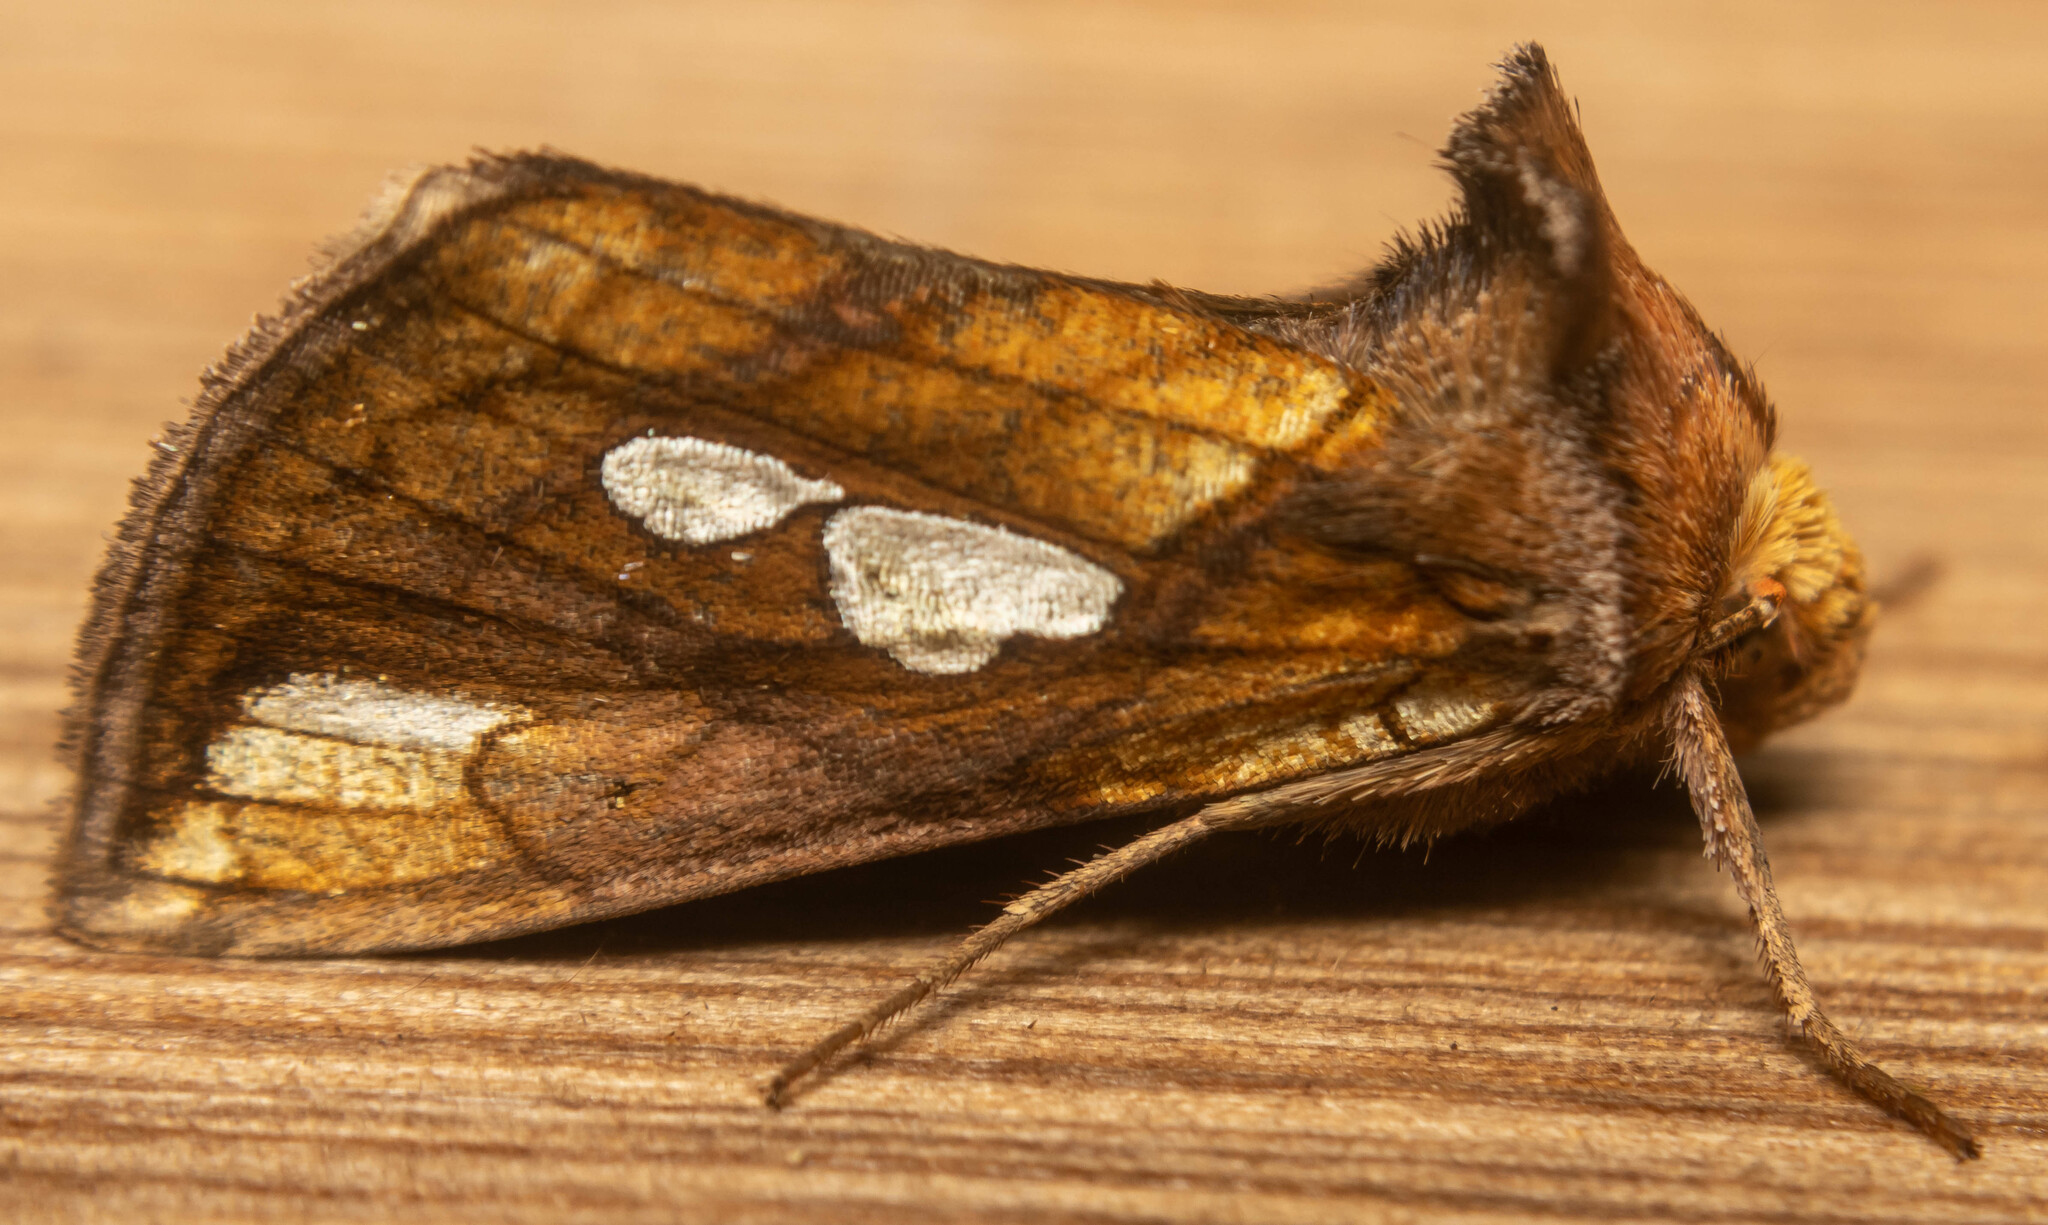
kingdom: Animalia
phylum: Arthropoda
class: Insecta
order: Lepidoptera
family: Noctuidae
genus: Plusia
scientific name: Plusia festucae
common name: Gold spot
